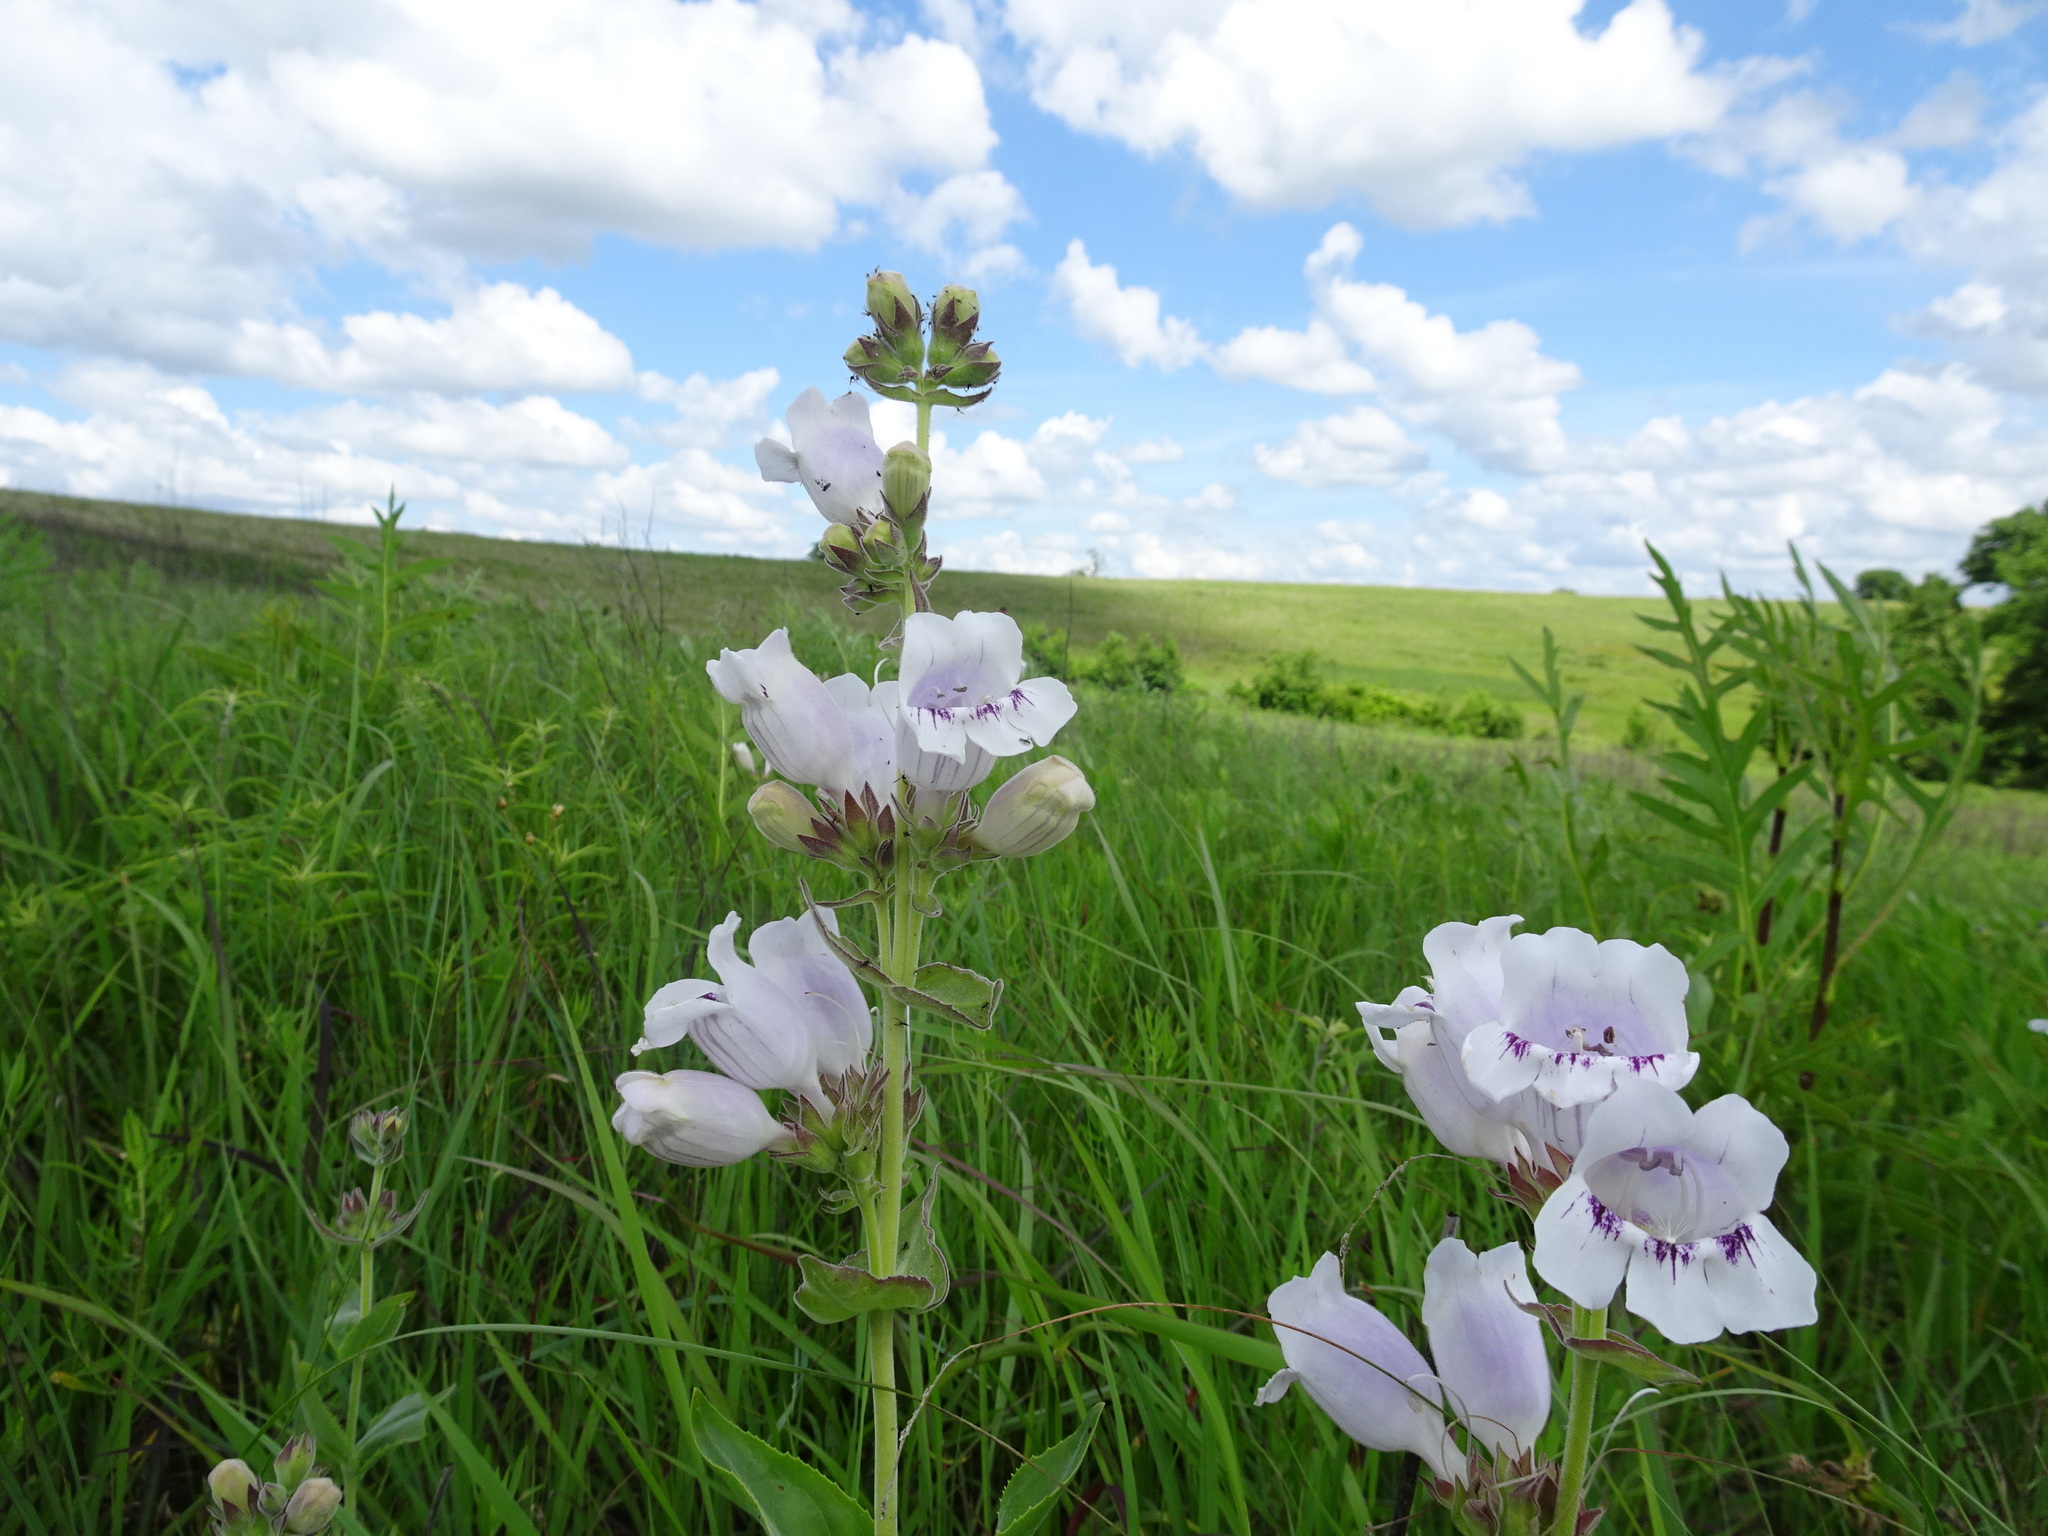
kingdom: Plantae
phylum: Tracheophyta
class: Magnoliopsida
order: Lamiales
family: Plantaginaceae
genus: Penstemon
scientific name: Penstemon cobaea
